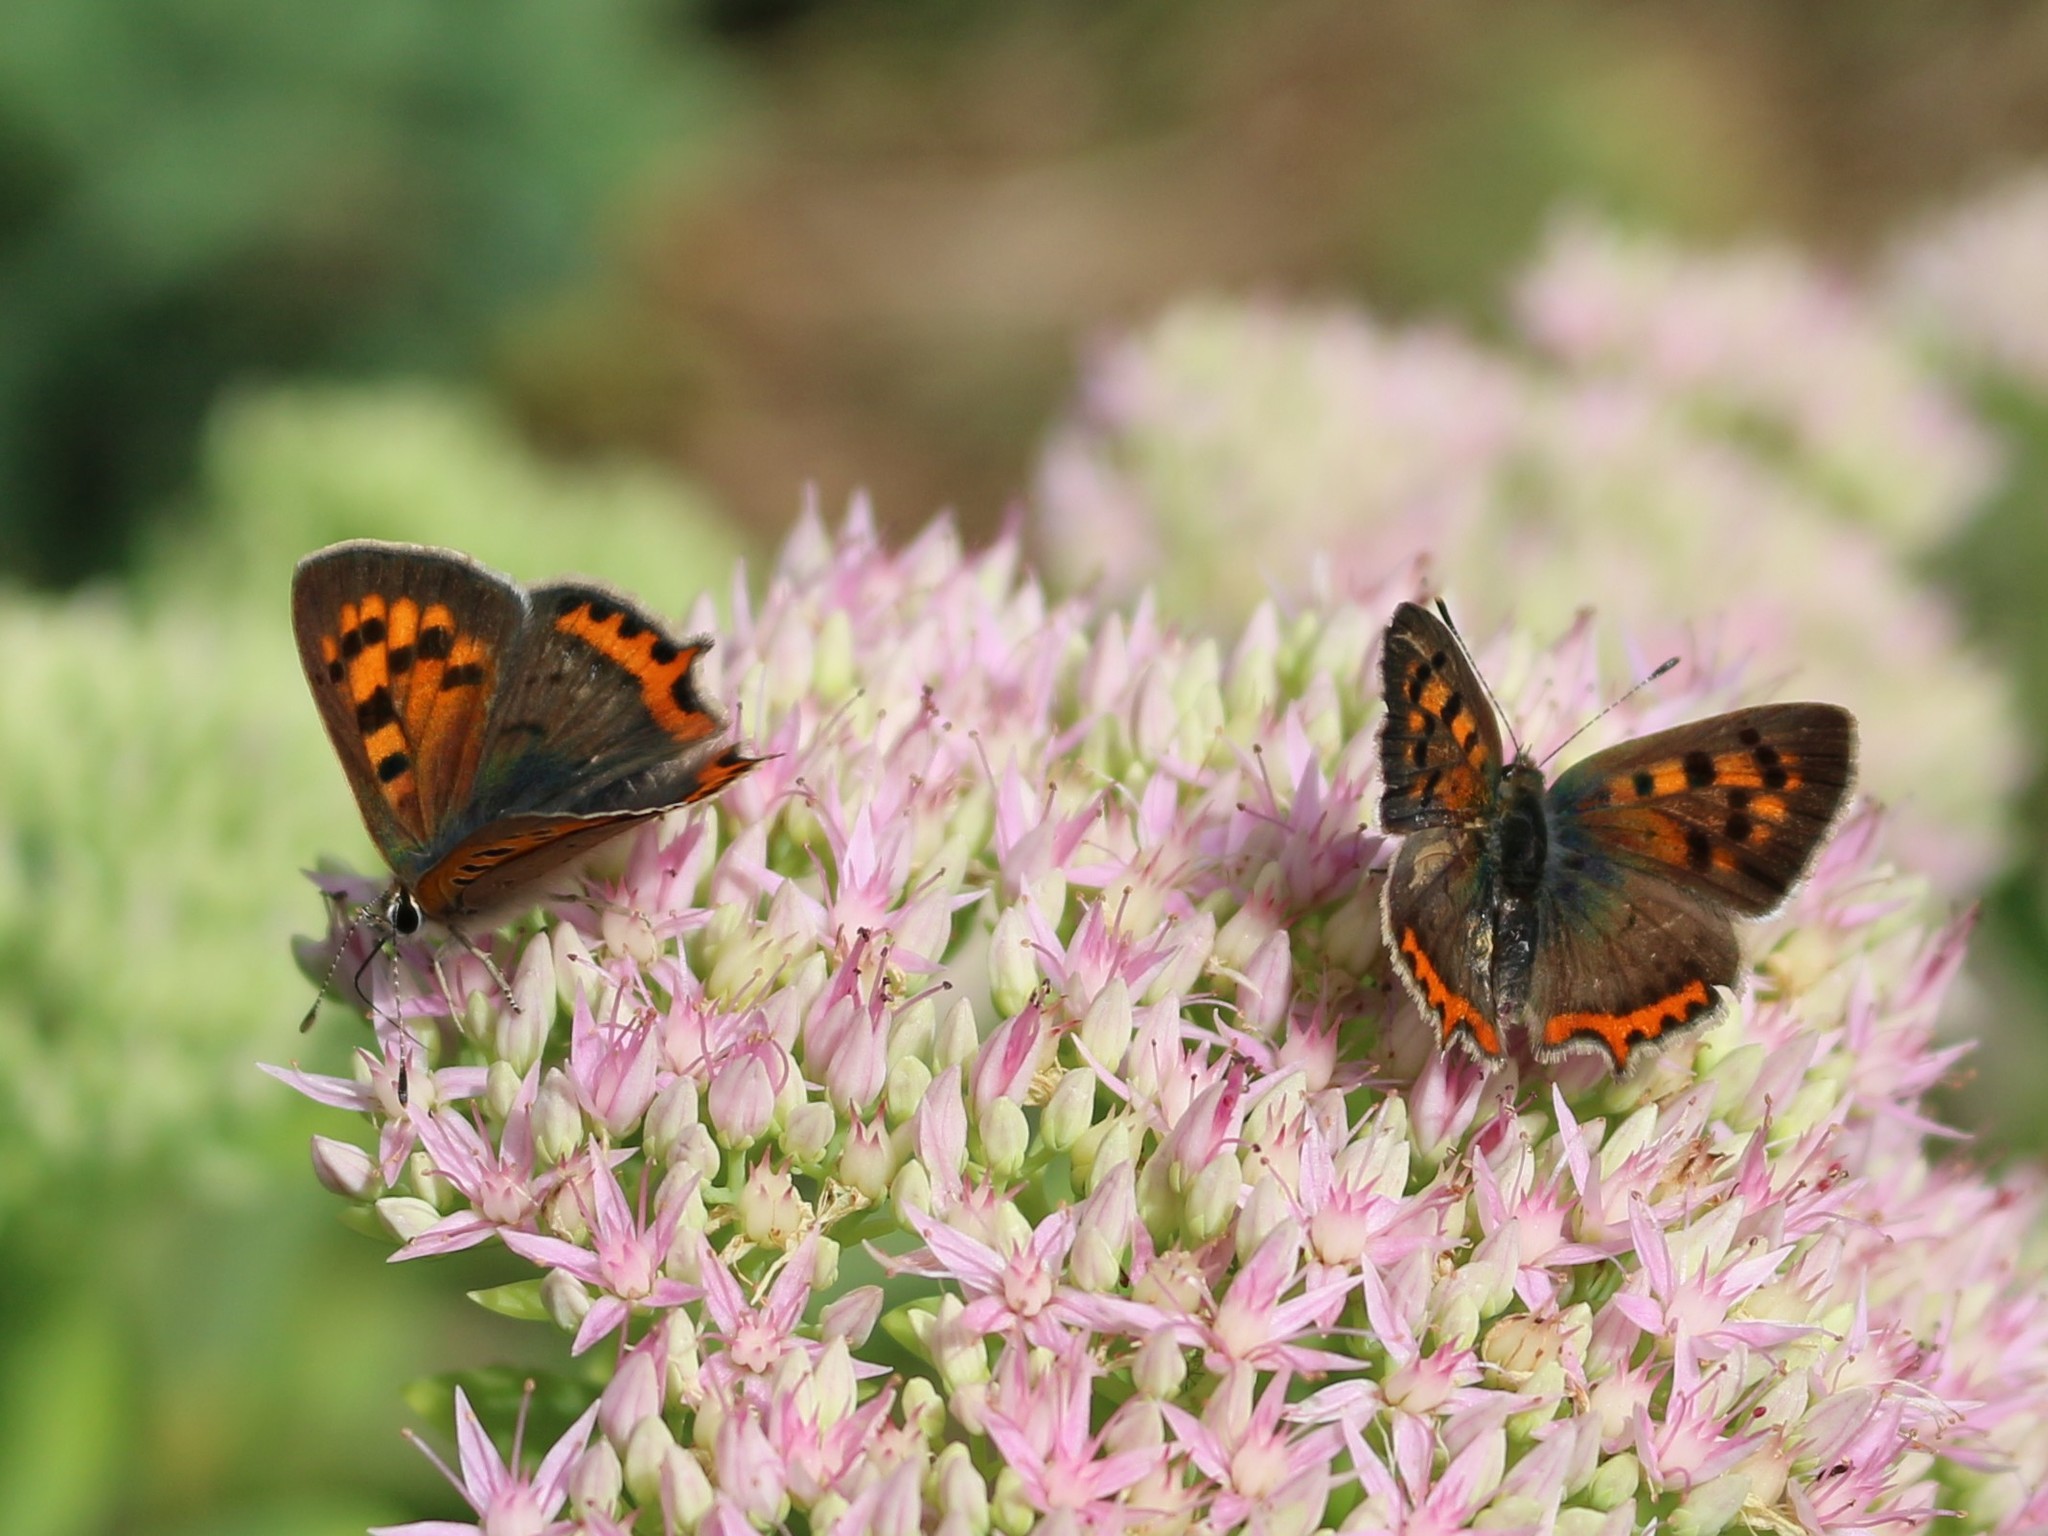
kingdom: Animalia
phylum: Arthropoda
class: Insecta
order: Lepidoptera
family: Lycaenidae
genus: Lycaena
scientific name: Lycaena phlaeas
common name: Small copper
